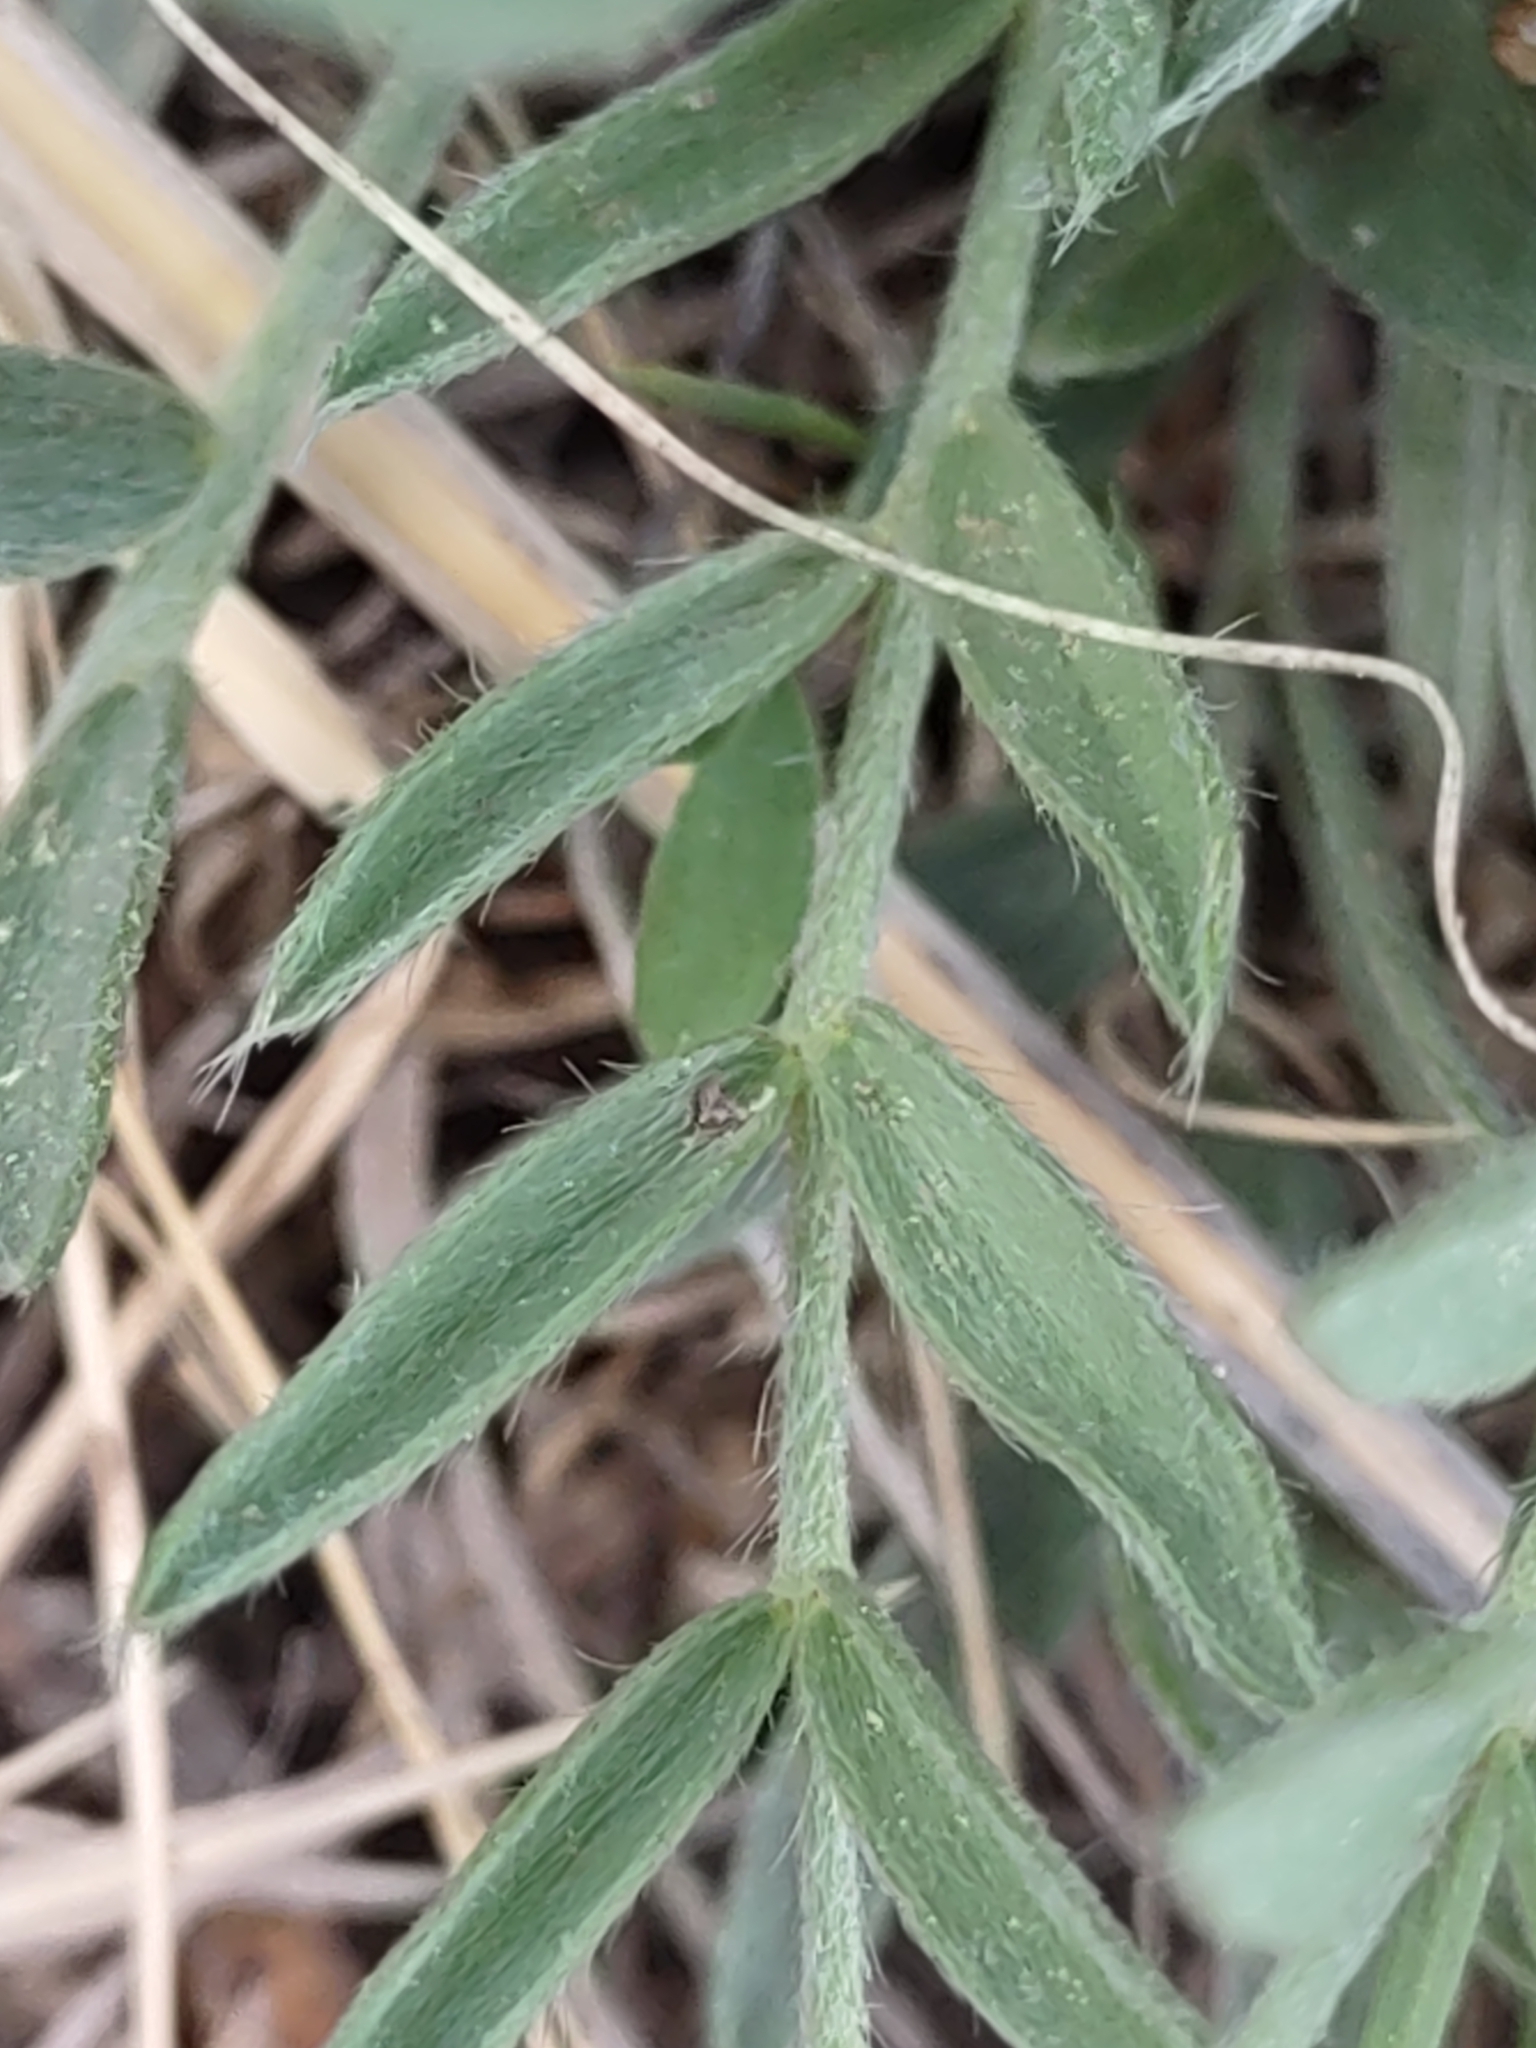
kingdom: Plantae
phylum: Tracheophyta
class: Magnoliopsida
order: Fabales
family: Fabaceae
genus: Oxytropis
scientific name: Oxytropis lambertii
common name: Purple locoweed
